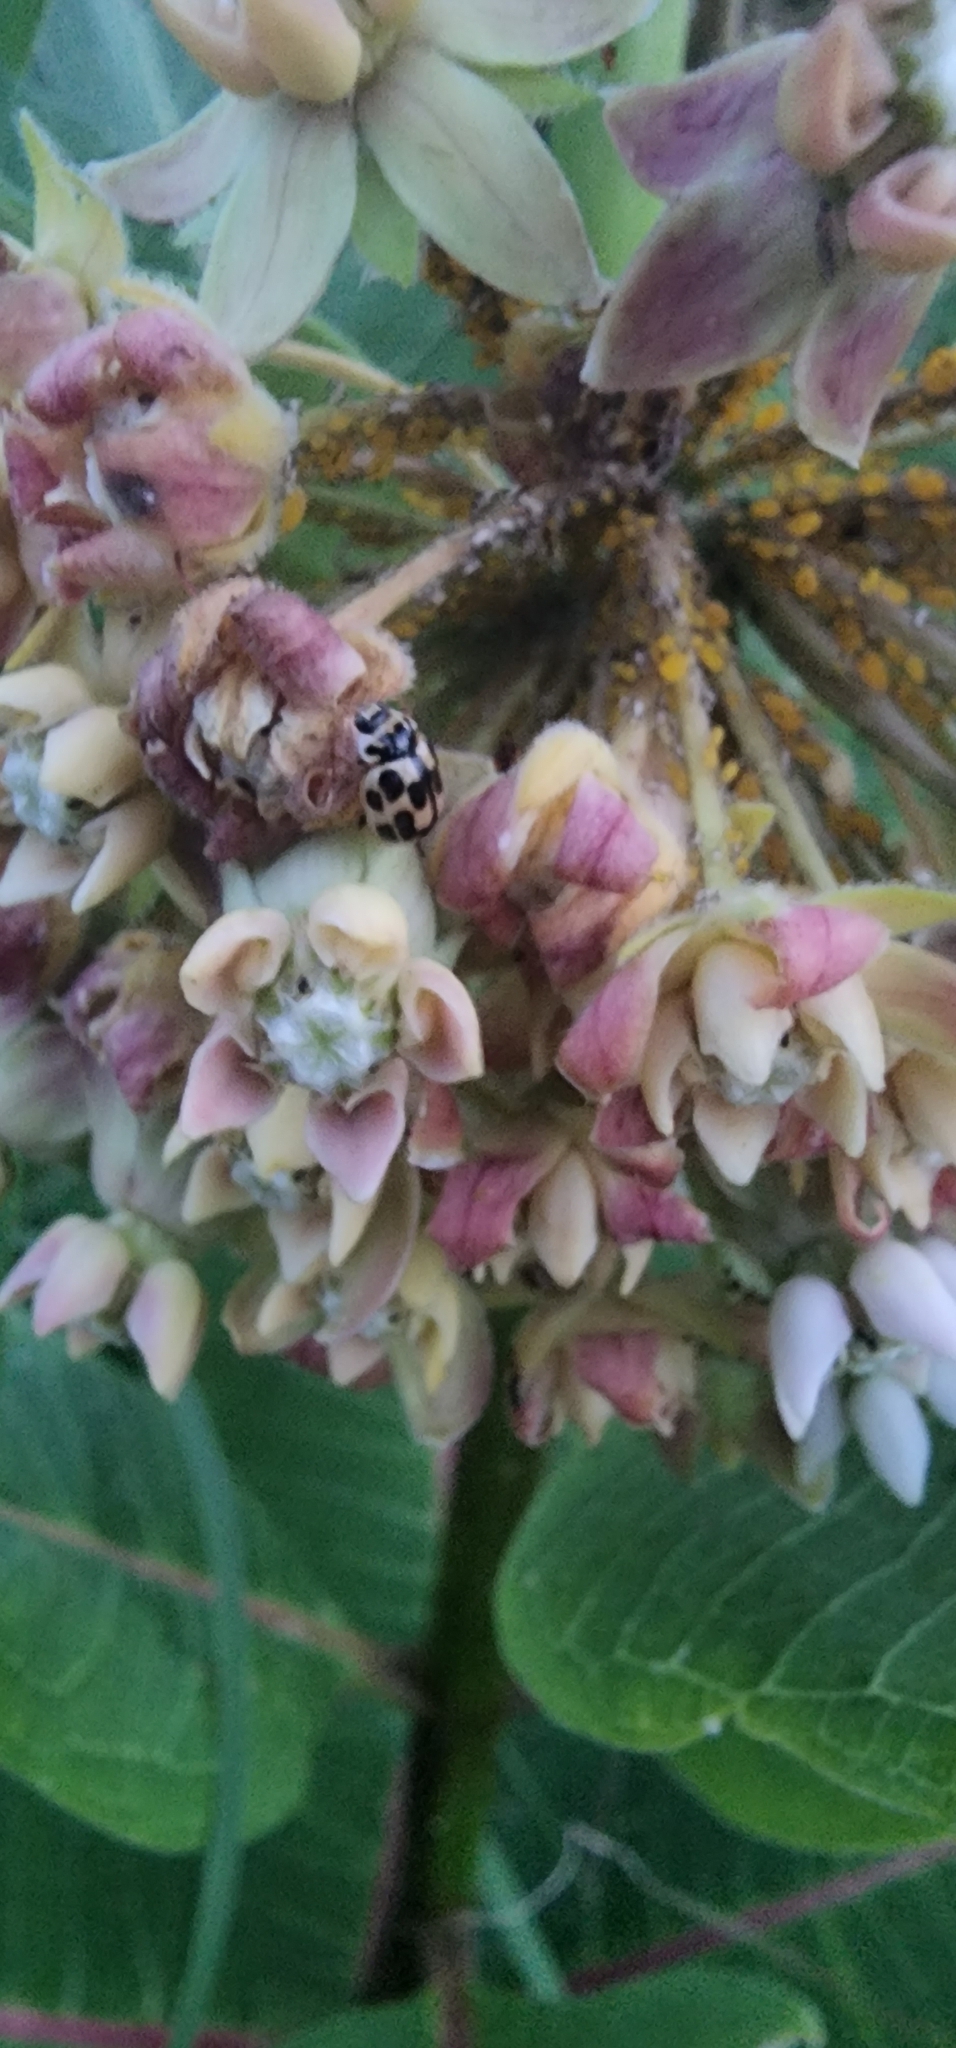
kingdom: Animalia
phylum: Arthropoda
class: Insecta
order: Coleoptera
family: Coccinellidae
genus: Propylaea
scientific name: Propylaea quatuordecimpunctata
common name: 14-spotted ladybird beetle
